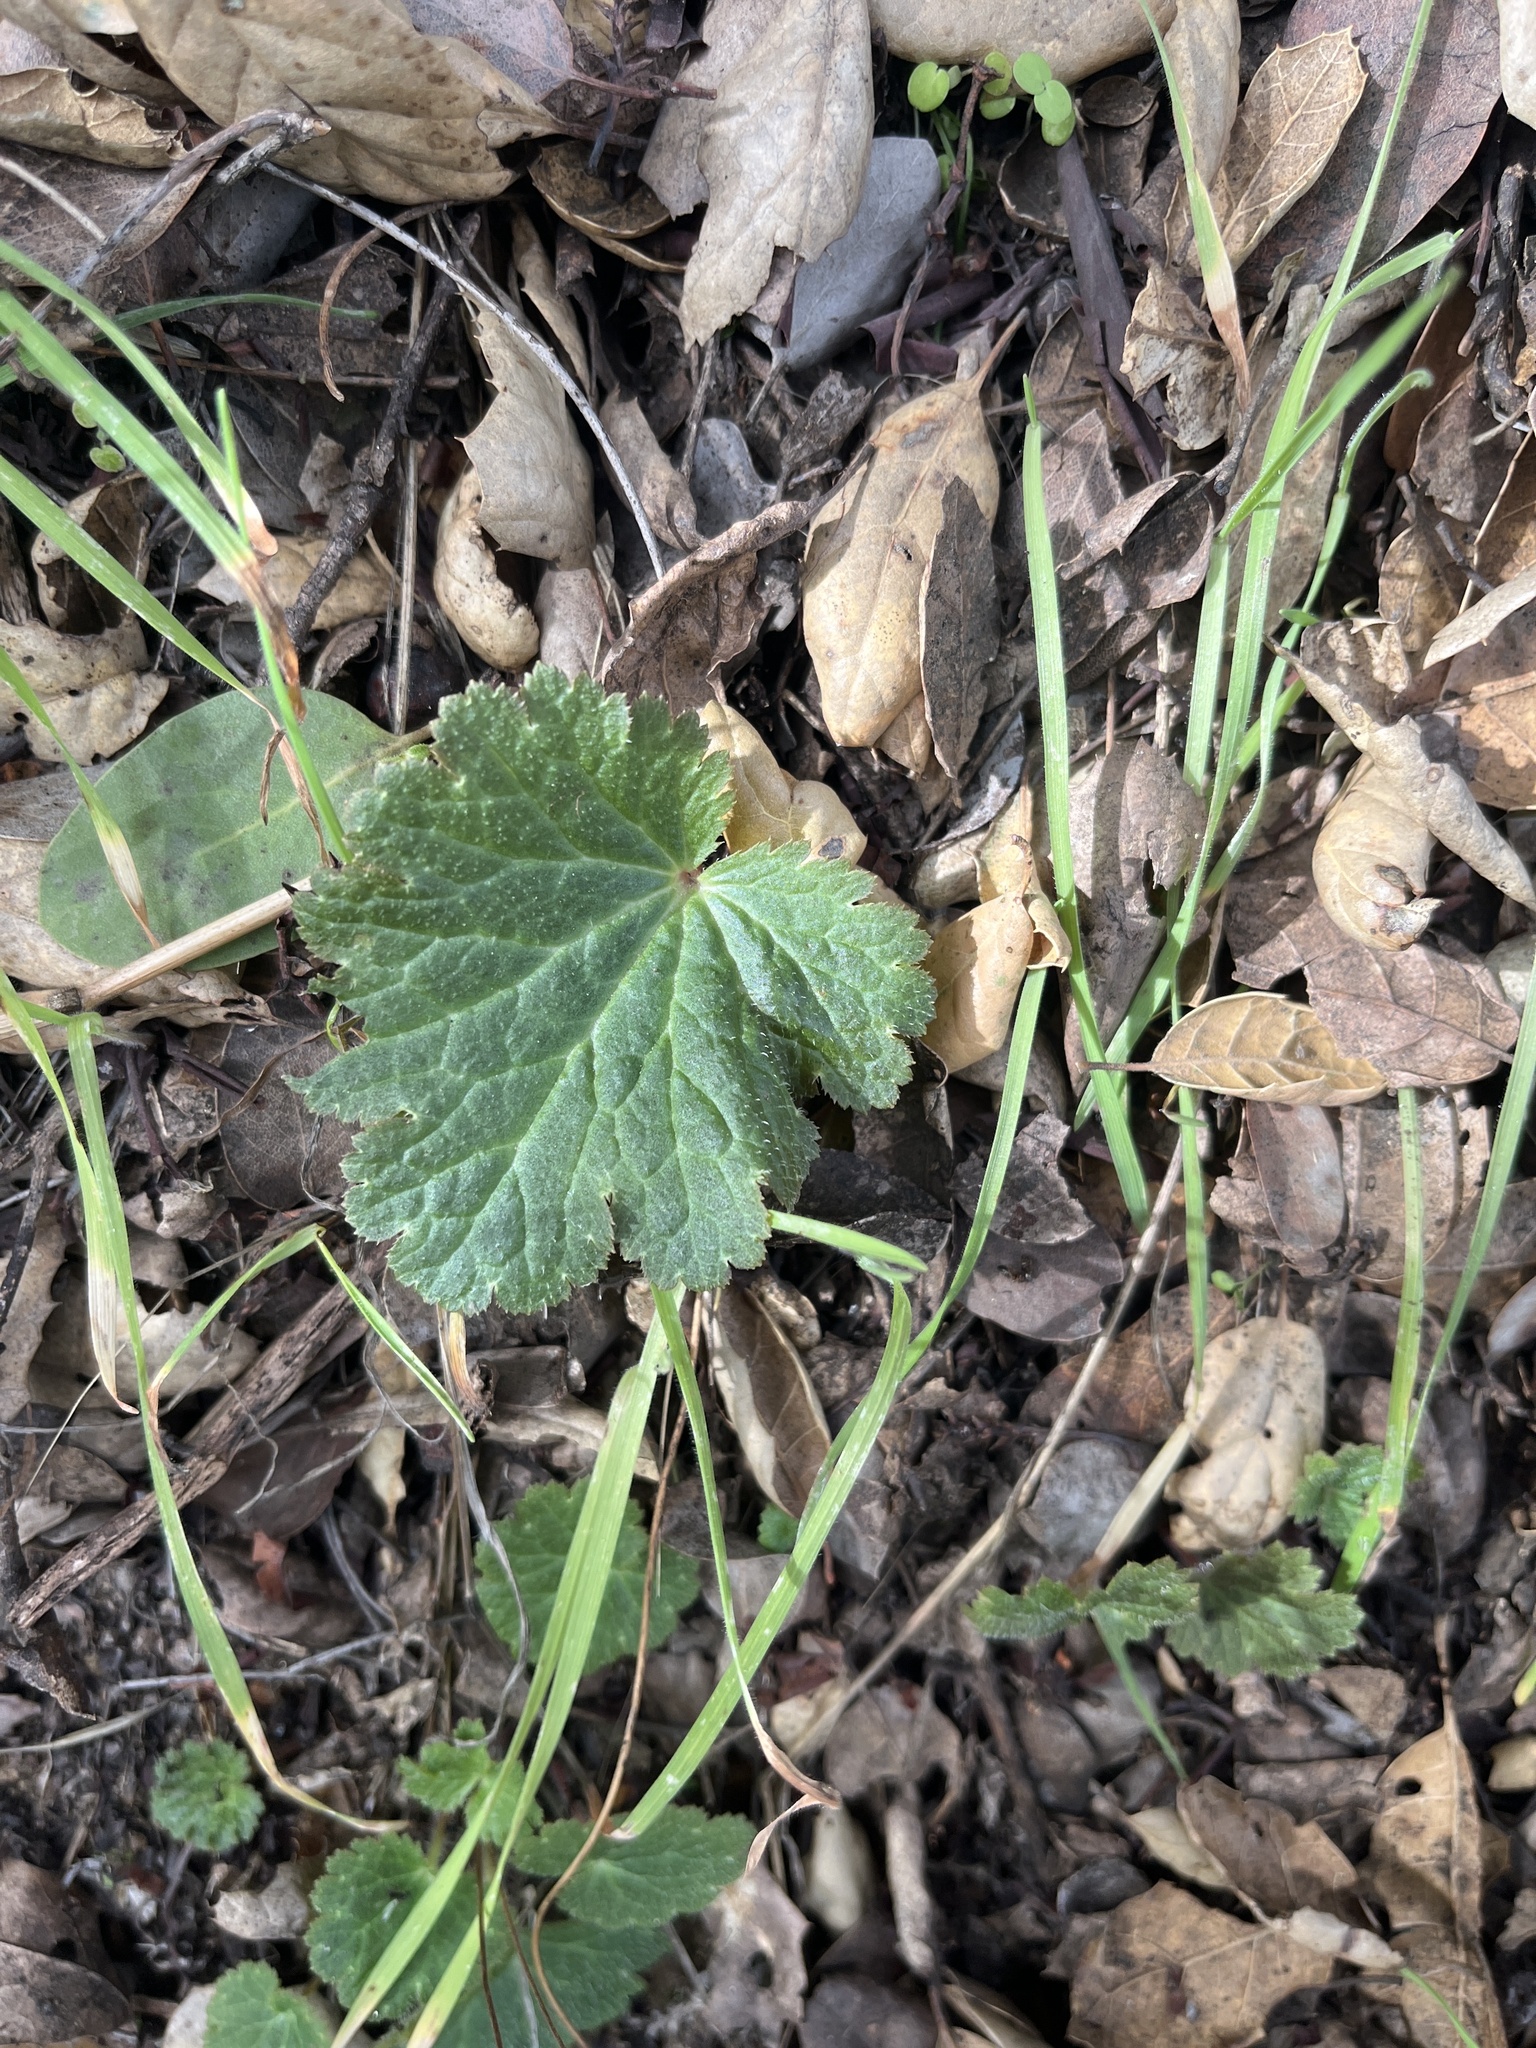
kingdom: Plantae
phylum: Tracheophyta
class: Magnoliopsida
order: Saxifragales
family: Saxifragaceae
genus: Jepsonia
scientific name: Jepsonia parryi
